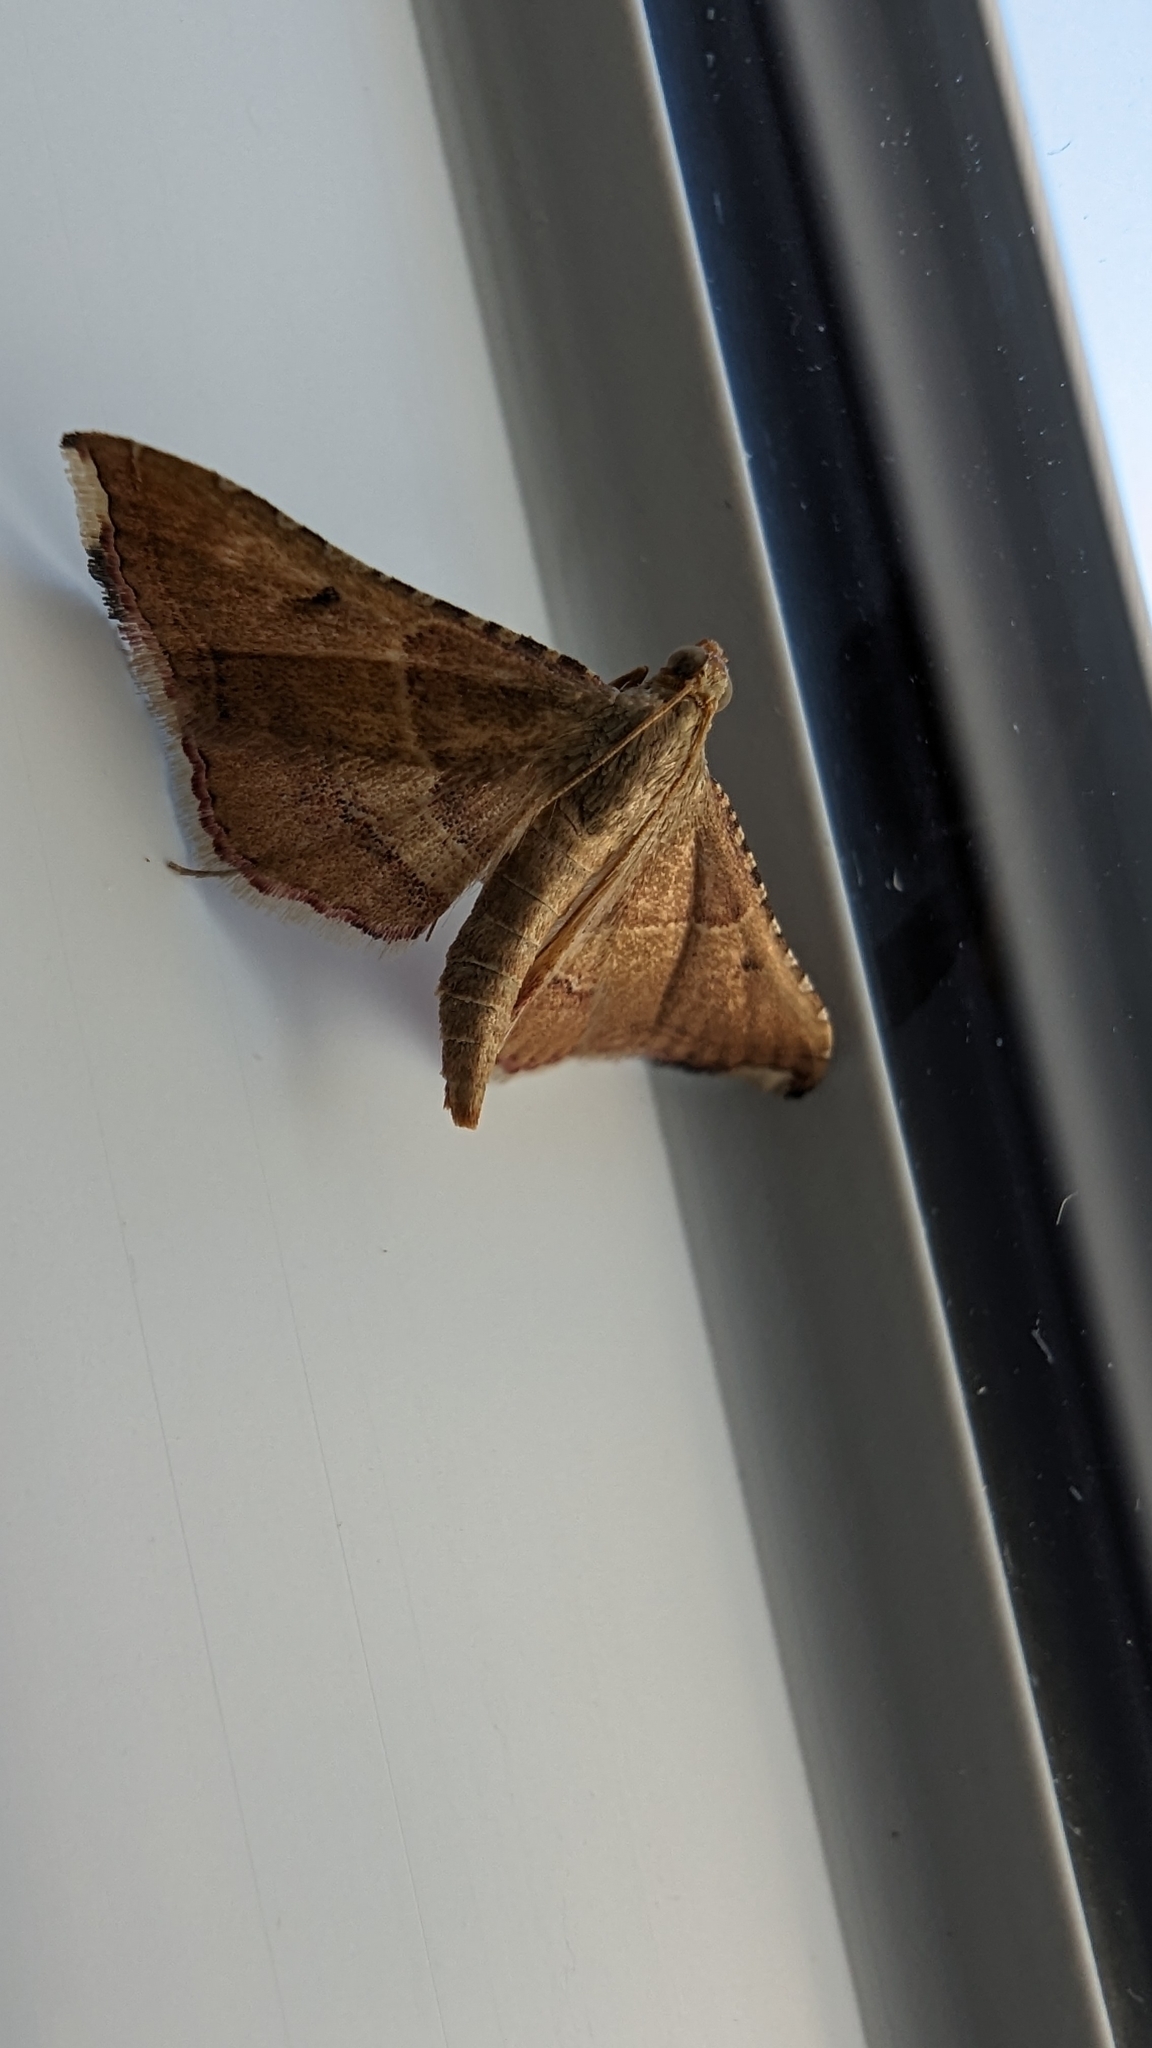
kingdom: Animalia
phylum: Arthropoda
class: Insecta
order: Lepidoptera
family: Pyralidae
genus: Endotricha
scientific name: Endotricha flammealis
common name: Rosy tabby
